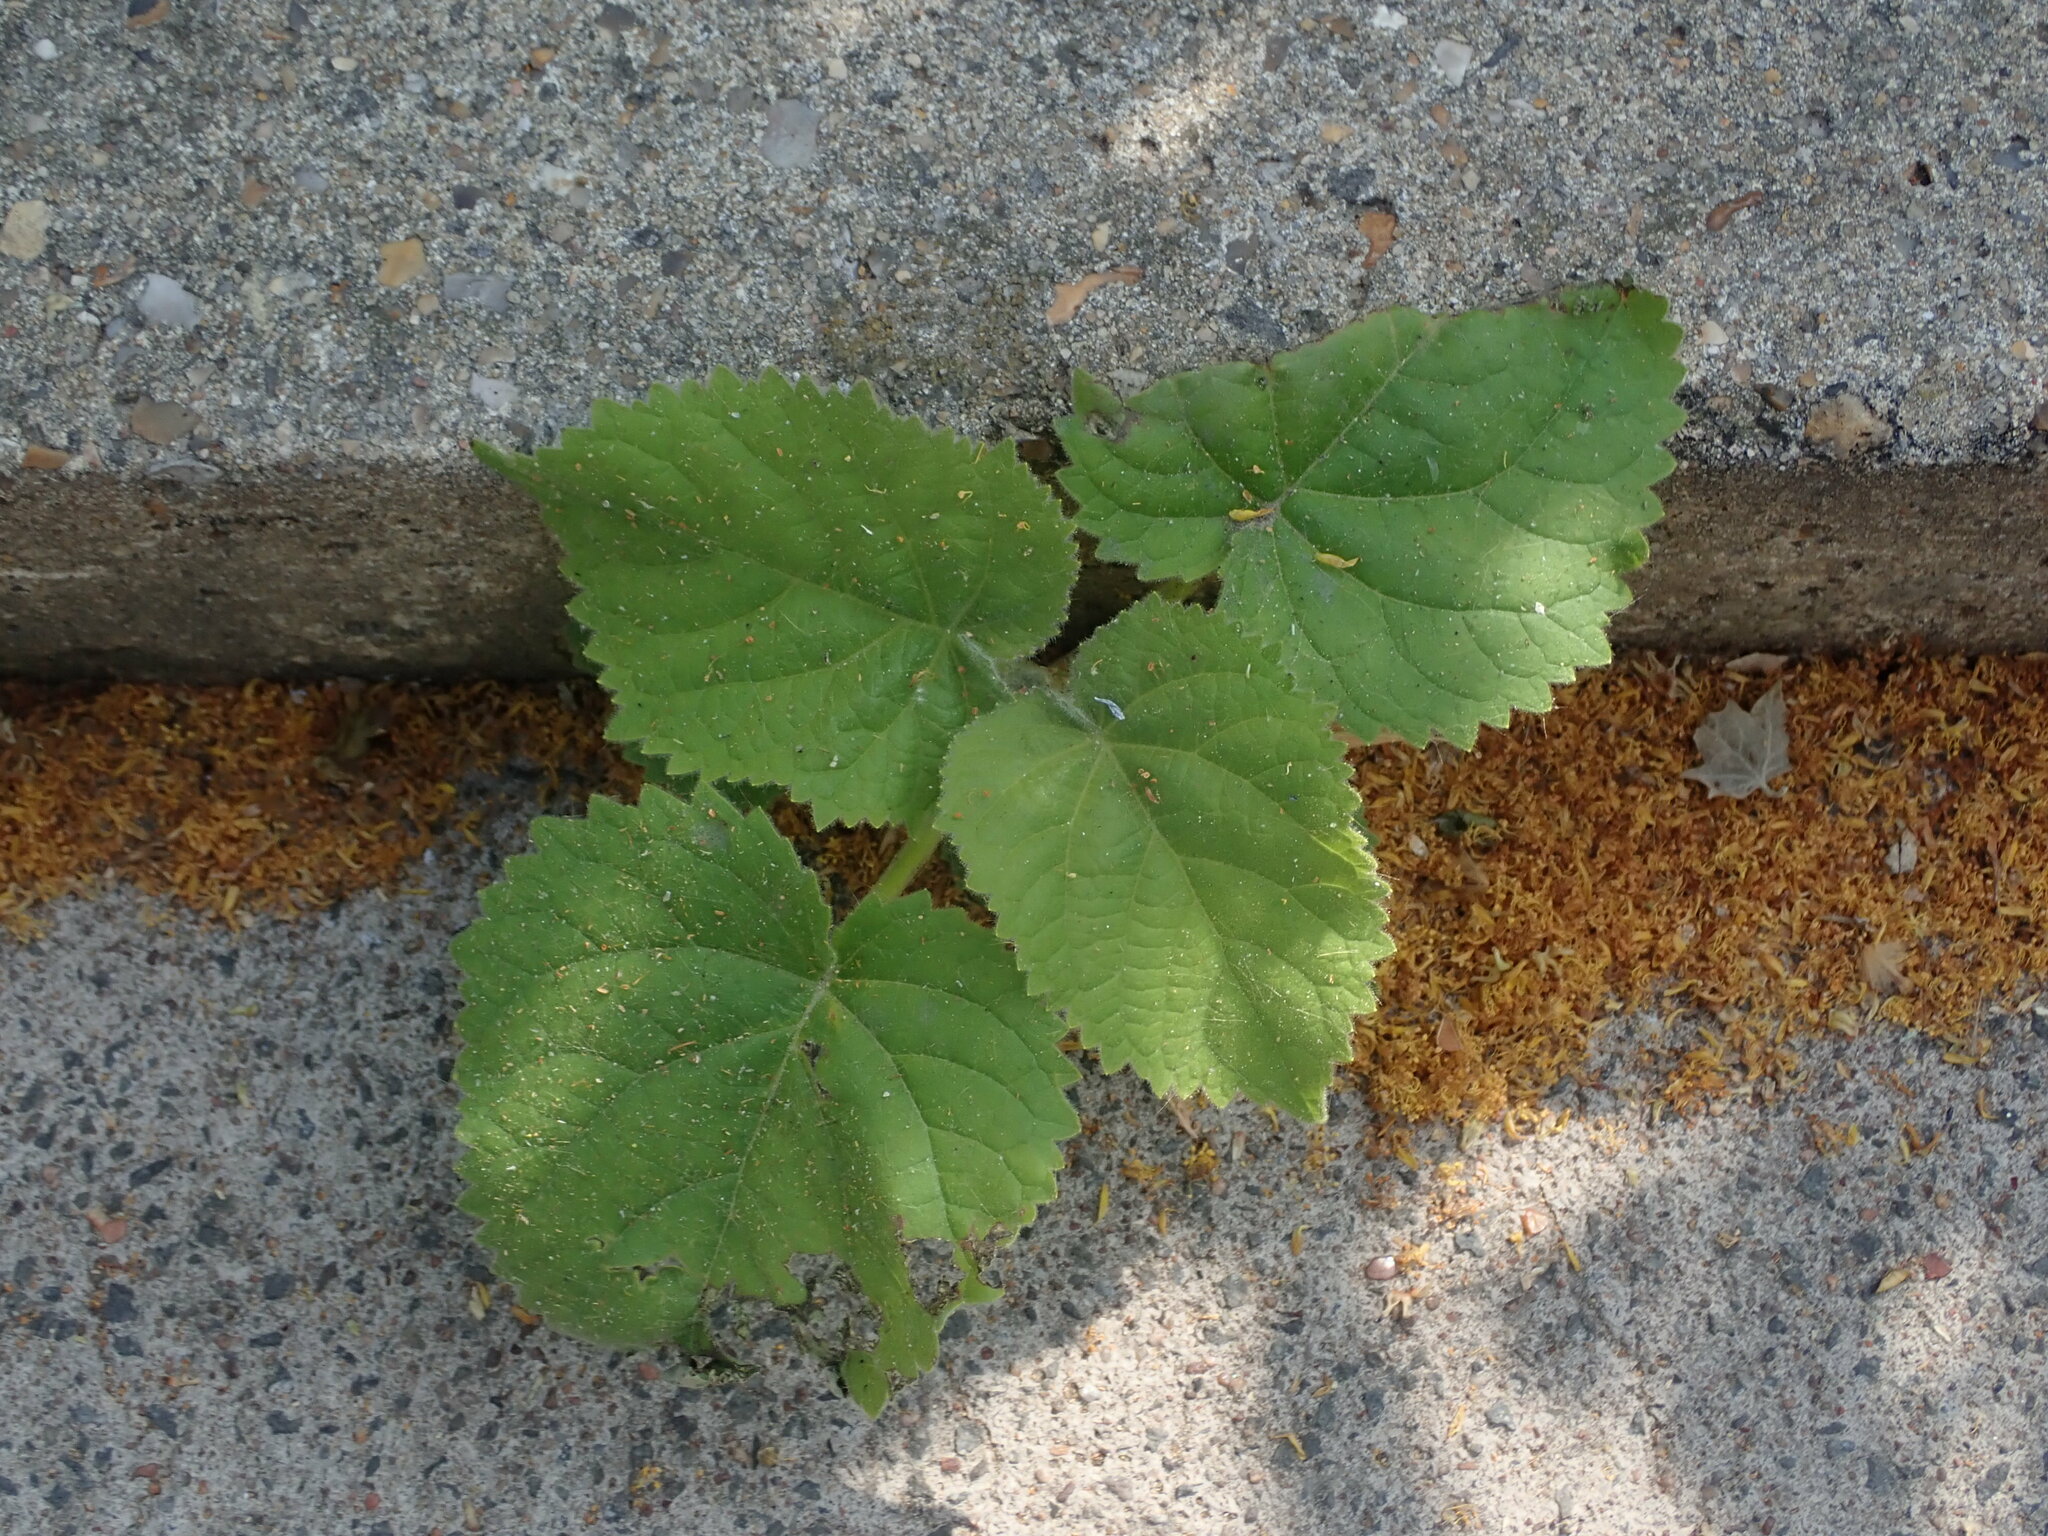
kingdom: Plantae
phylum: Tracheophyta
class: Magnoliopsida
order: Lamiales
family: Paulowniaceae
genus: Paulownia
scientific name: Paulownia tomentosa
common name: Foxglove-tree
